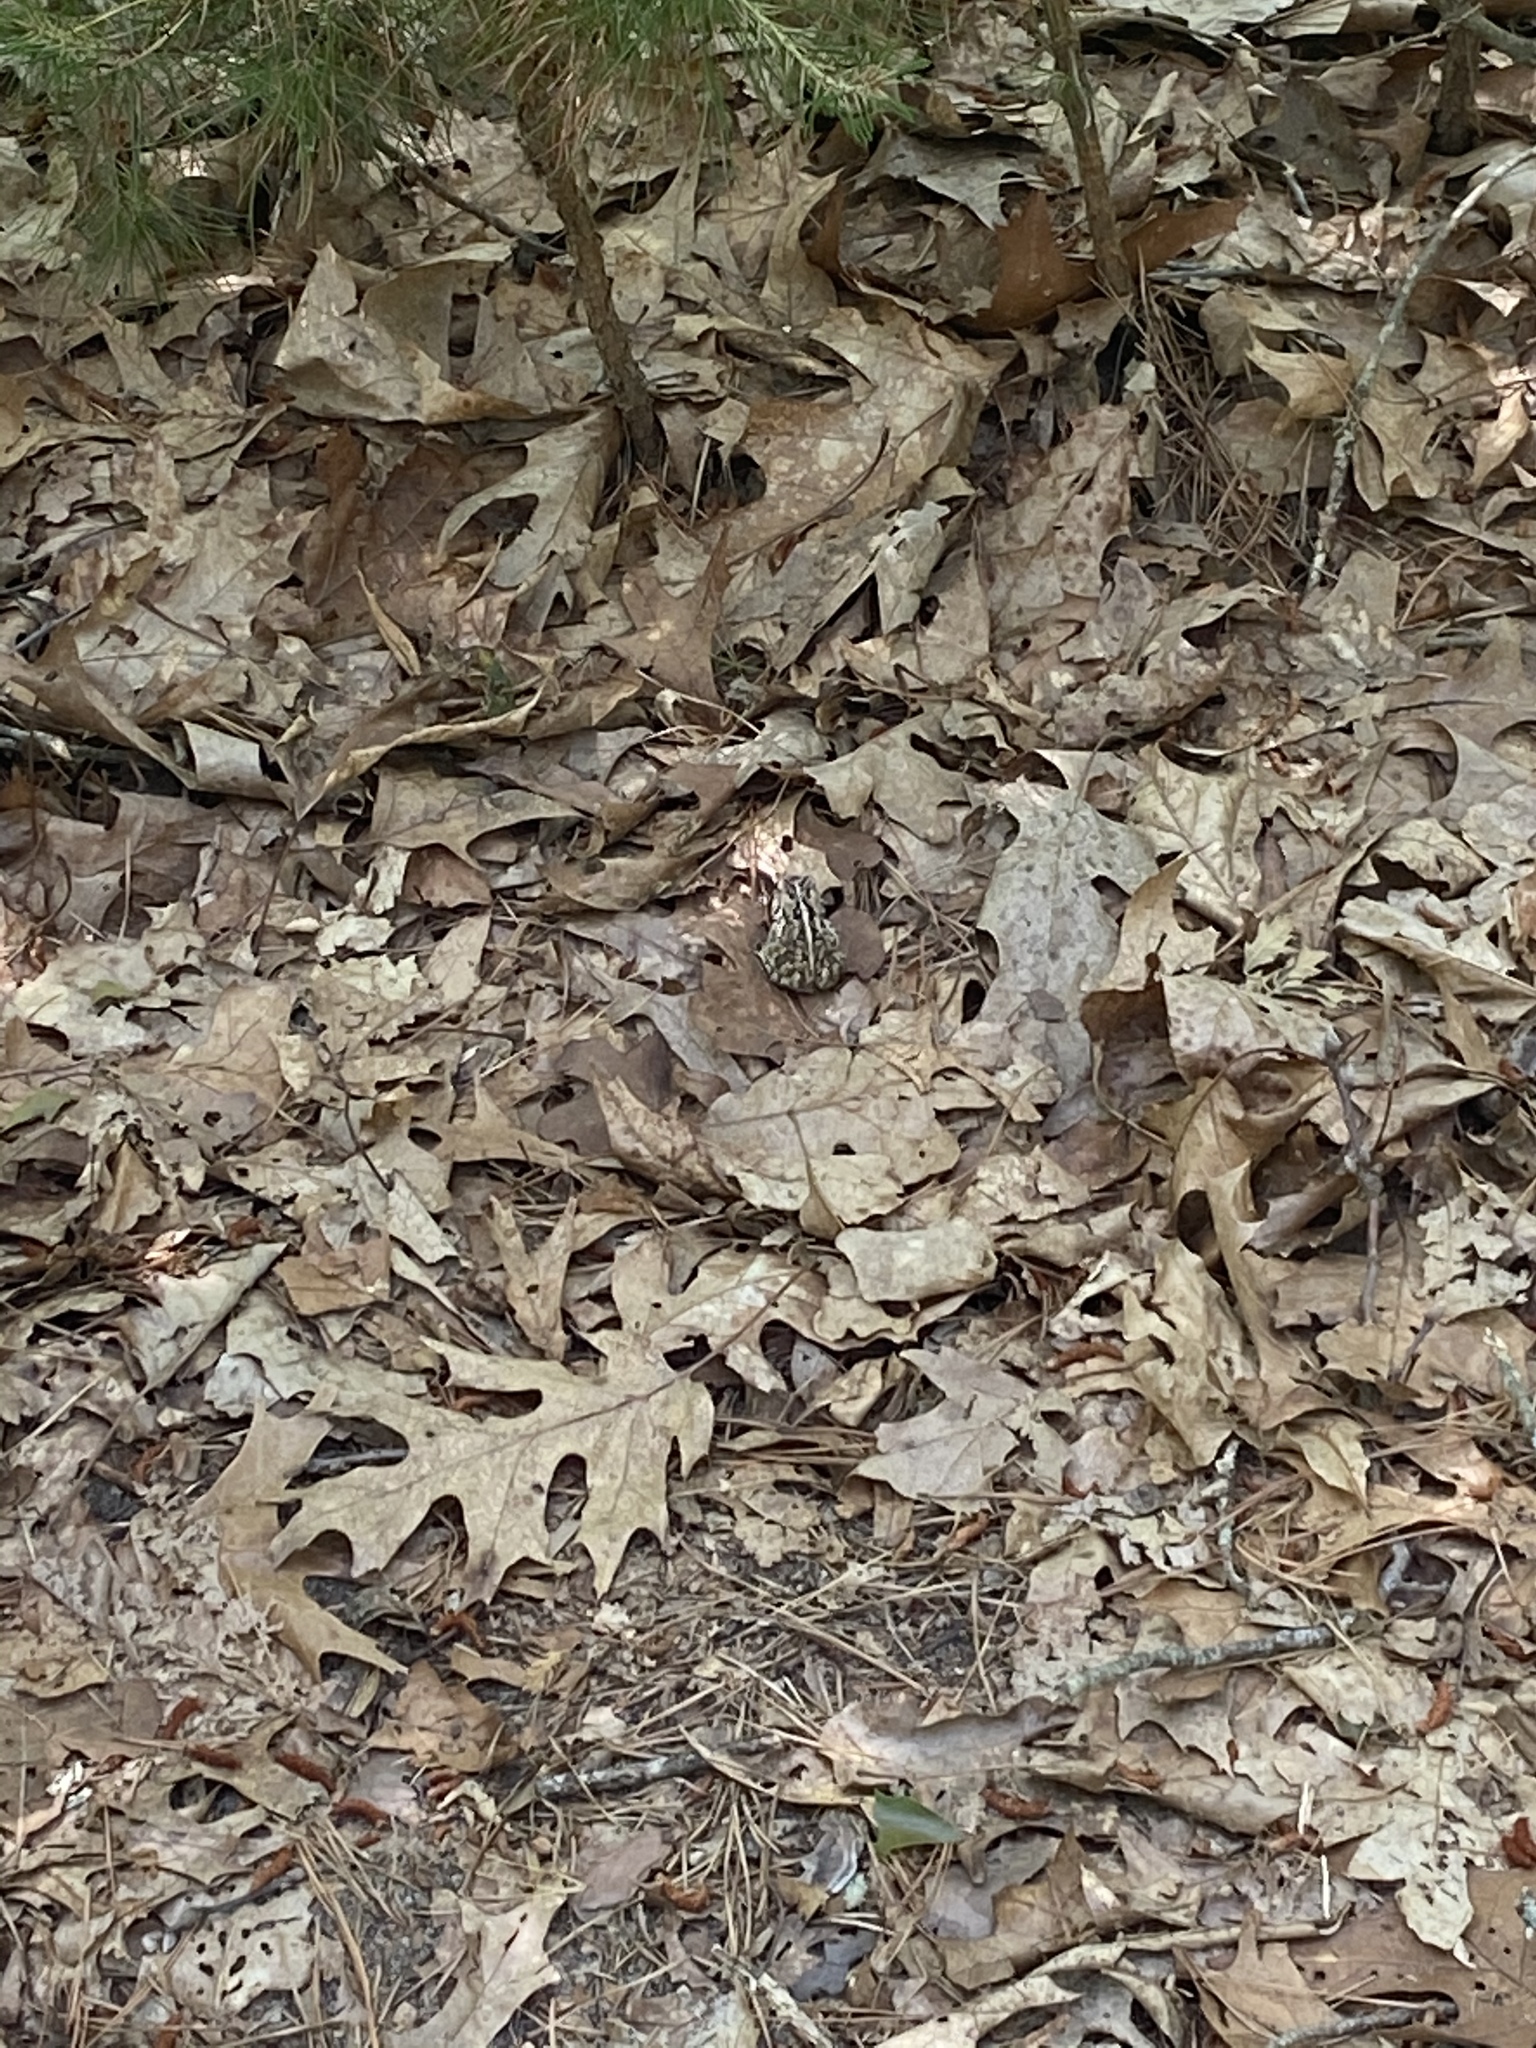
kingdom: Animalia
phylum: Chordata
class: Amphibia
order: Anura
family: Bufonidae
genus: Anaxyrus
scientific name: Anaxyrus fowleri
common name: Fowler's toad
